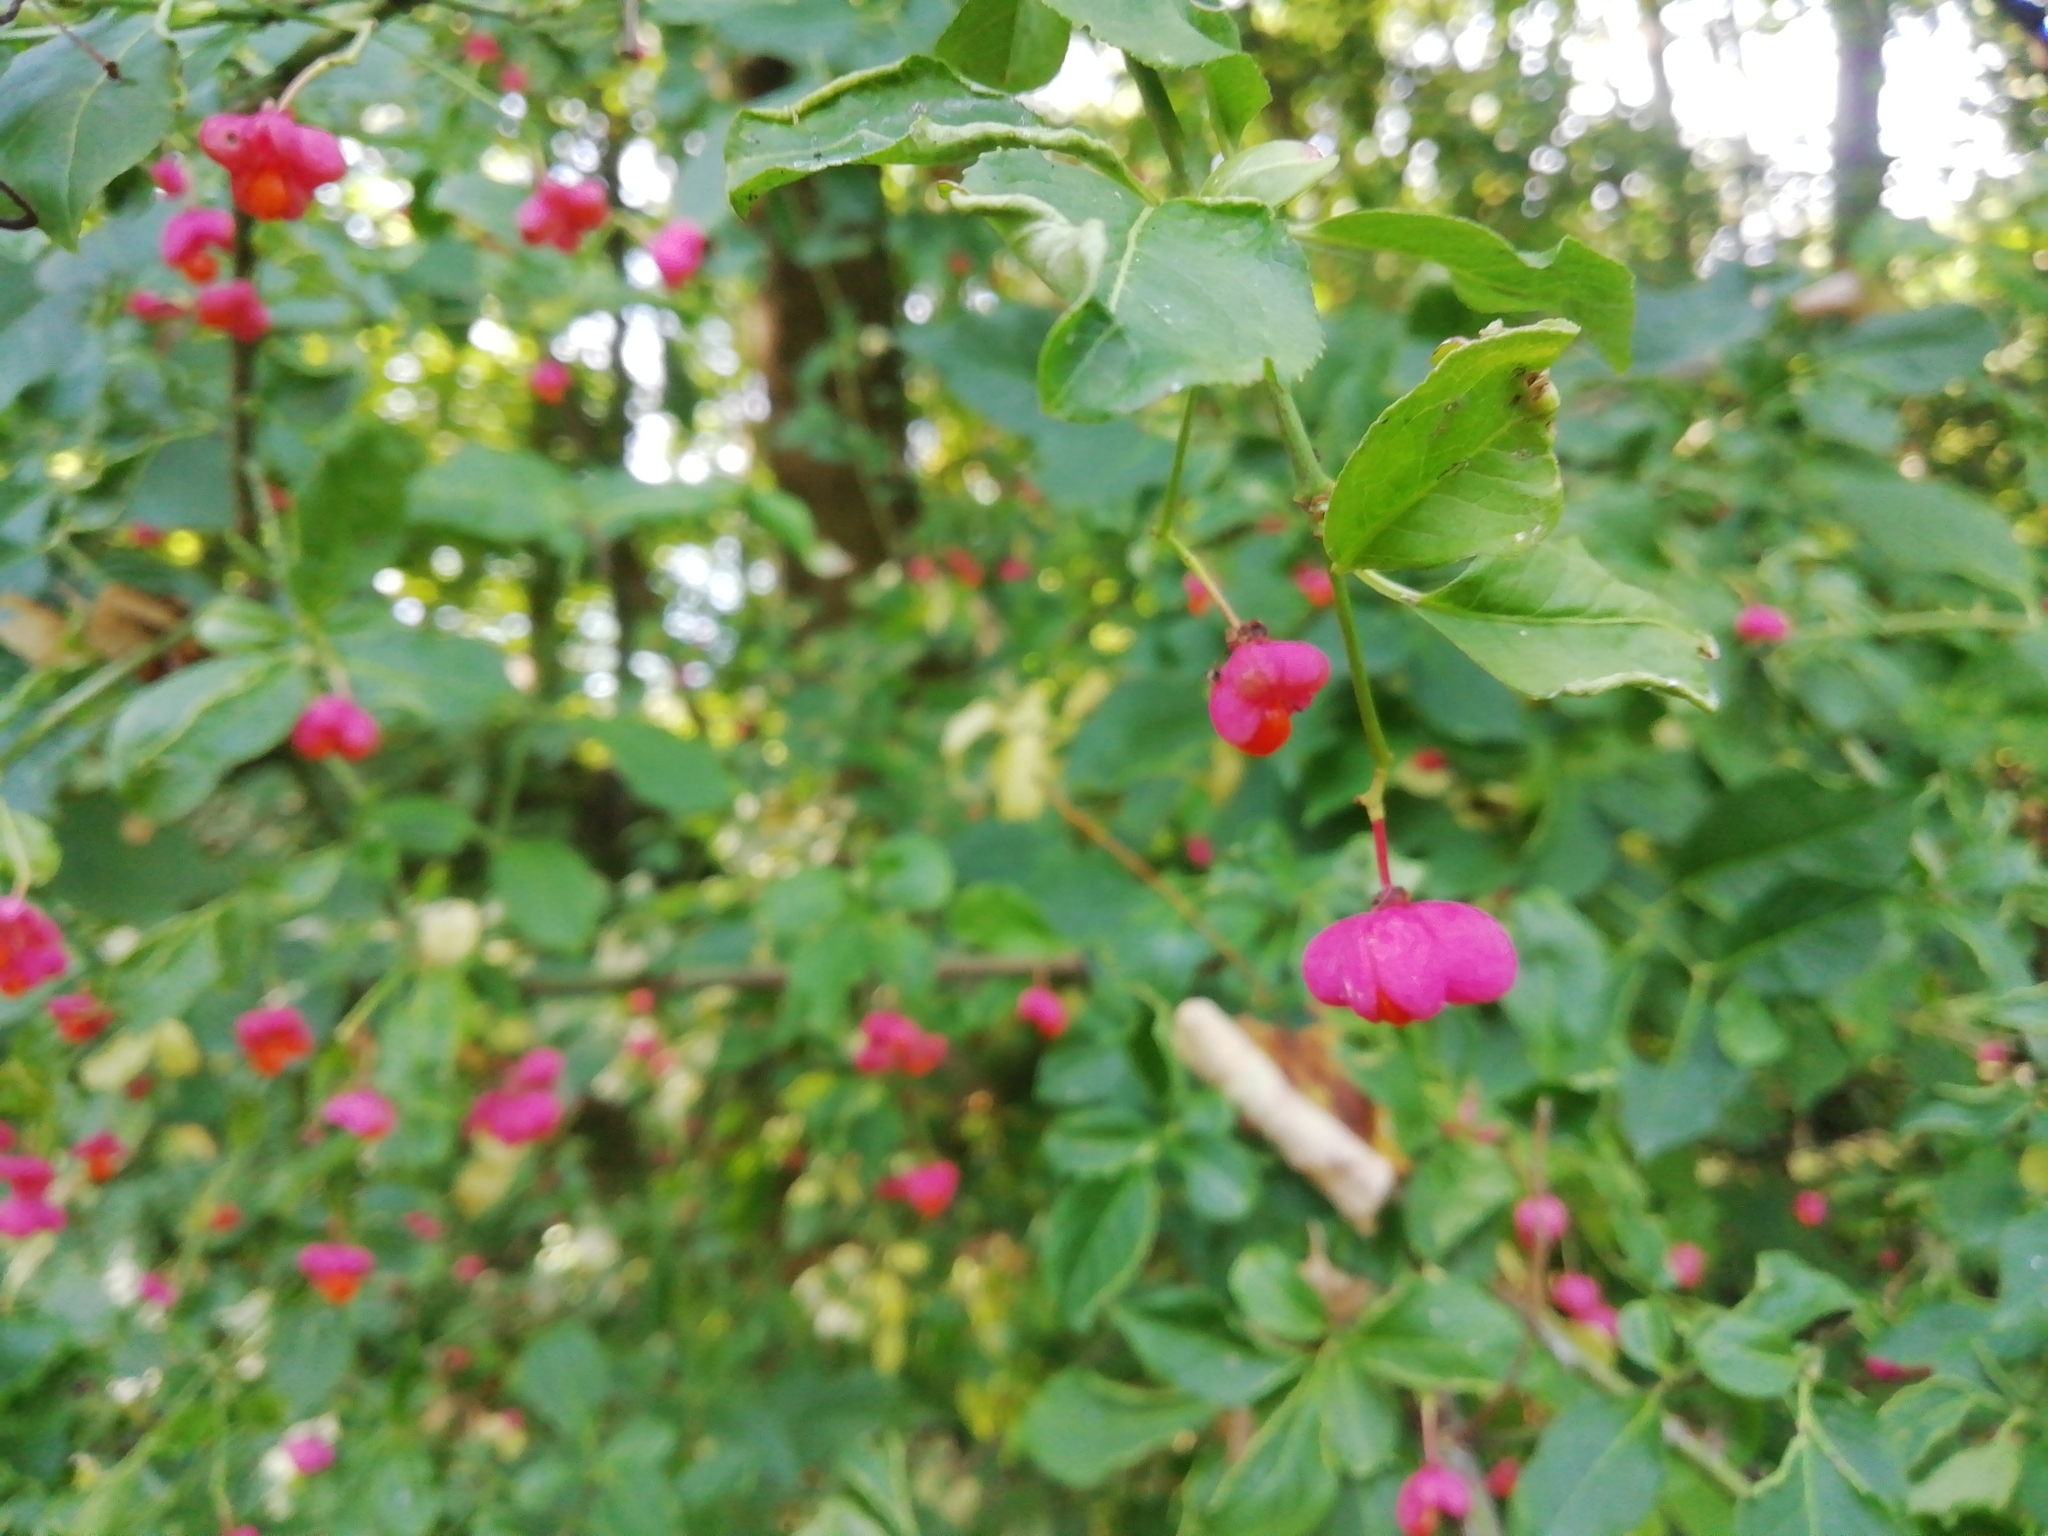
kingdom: Plantae
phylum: Tracheophyta
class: Magnoliopsida
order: Celastrales
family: Celastraceae
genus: Euonymus
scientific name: Euonymus europaeus
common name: Spindle
